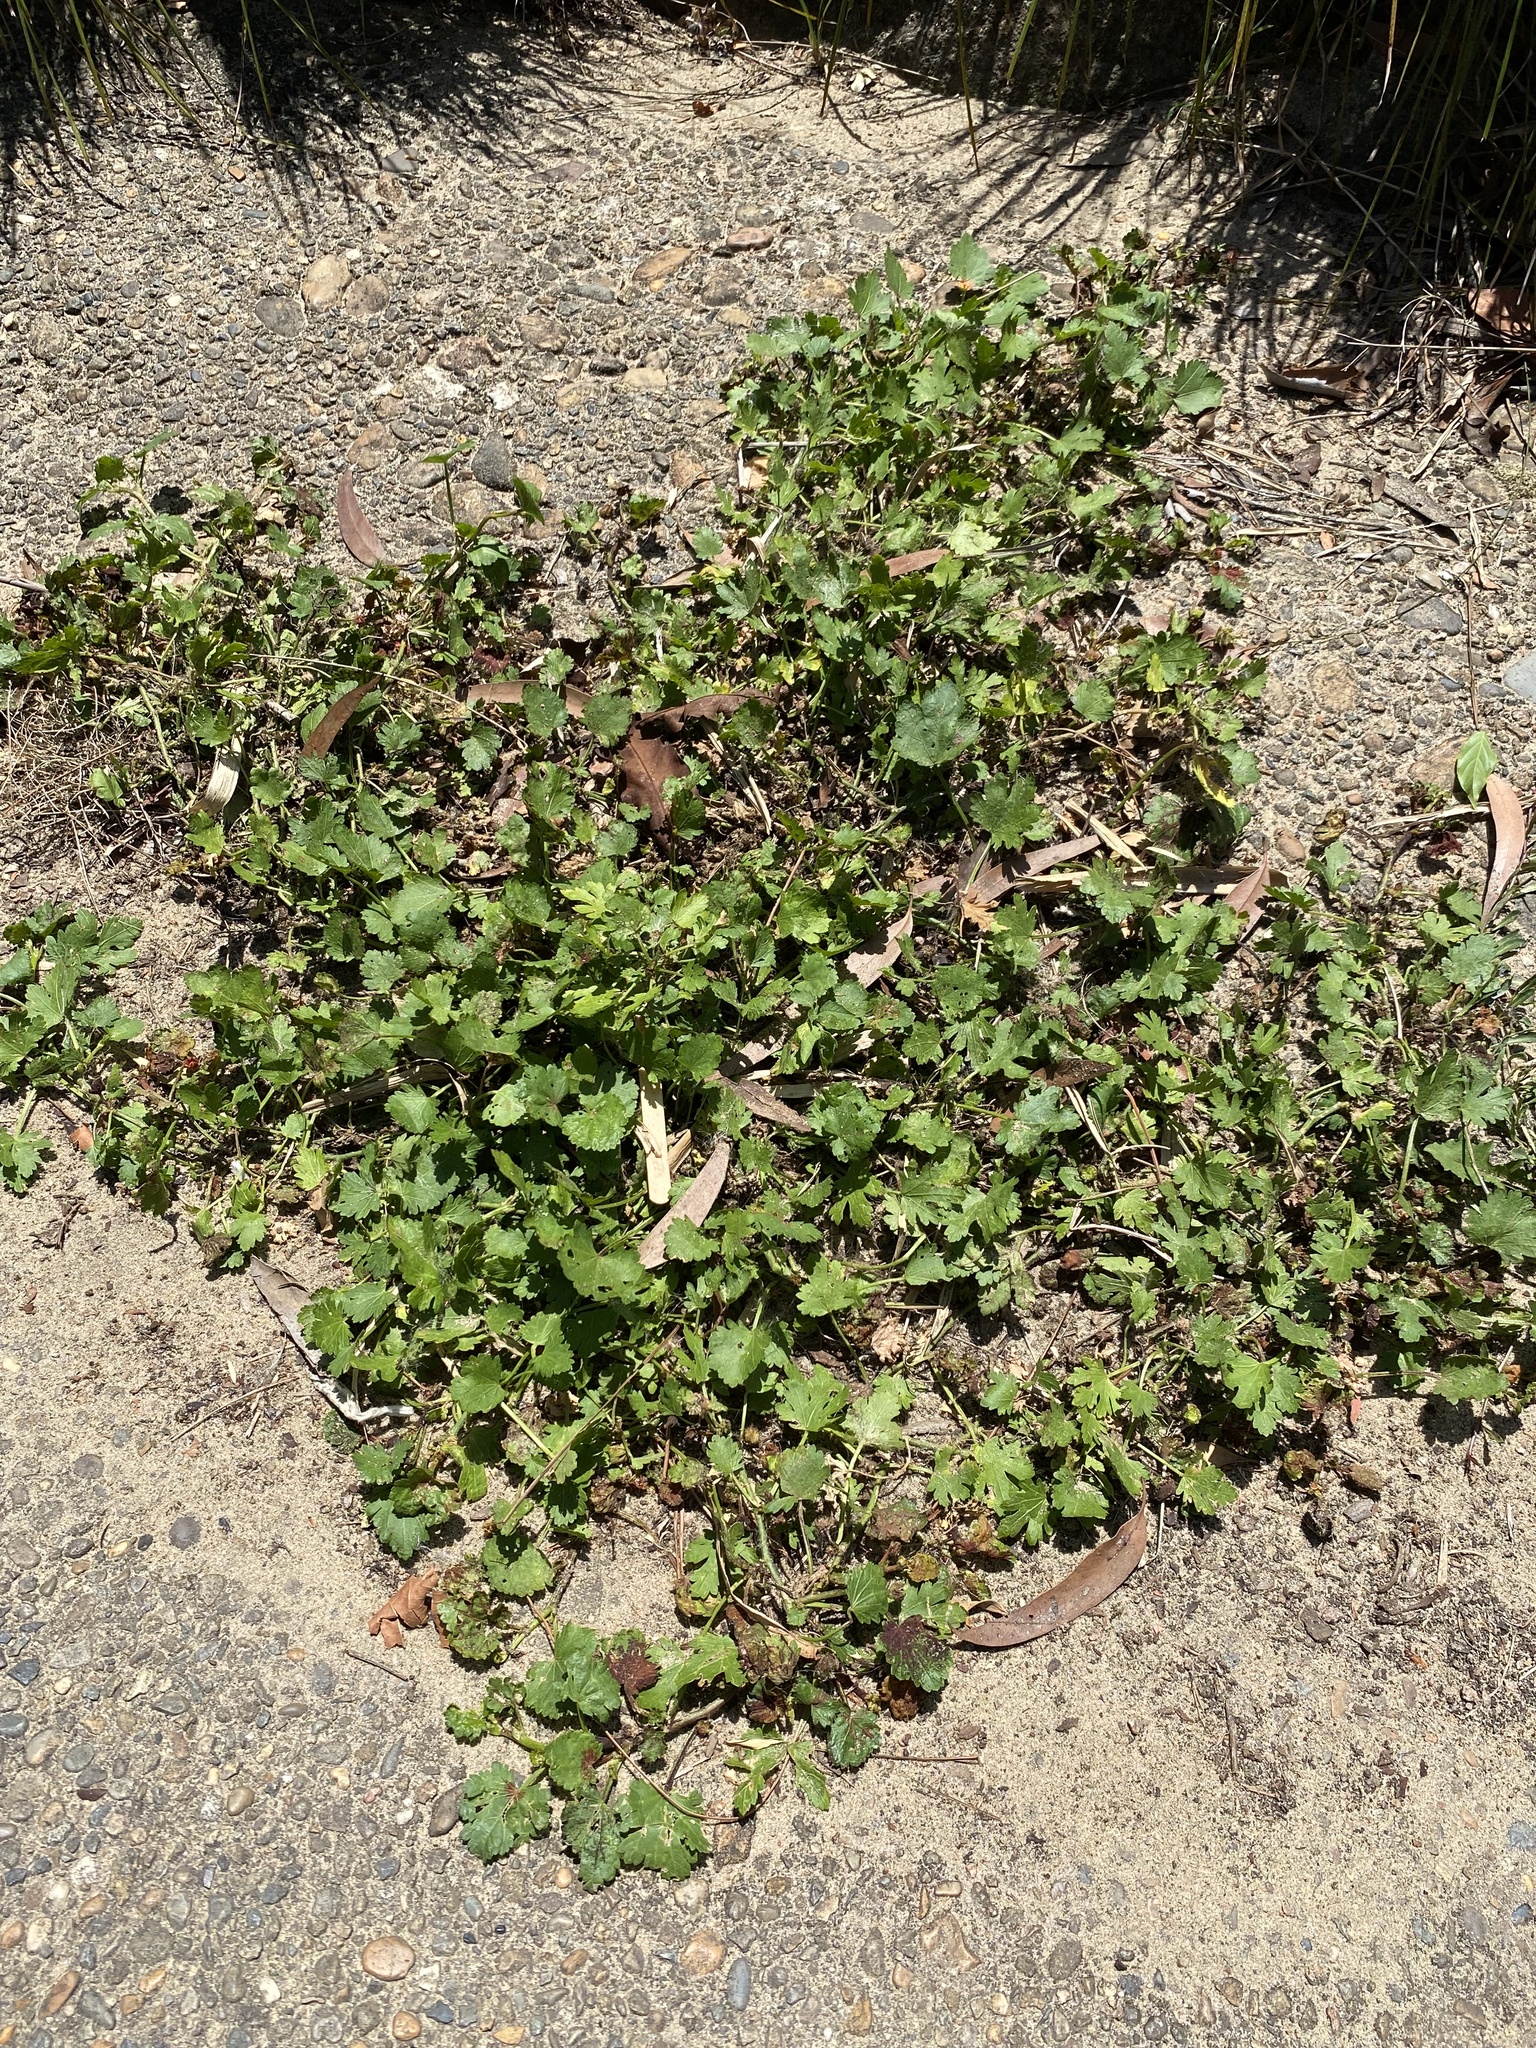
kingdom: Plantae
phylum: Tracheophyta
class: Magnoliopsida
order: Malvales
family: Malvaceae
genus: Modiola
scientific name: Modiola caroliniana
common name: Carolina bristlemallow
